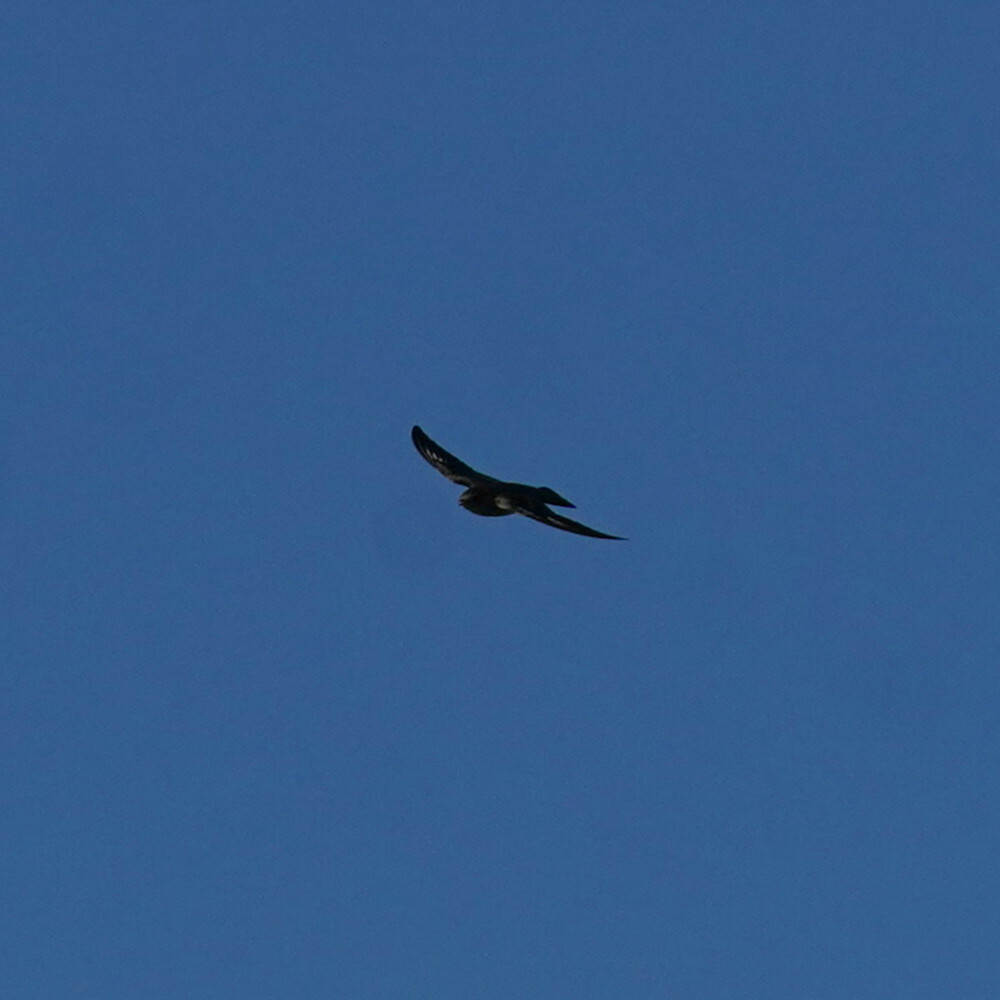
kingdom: Animalia
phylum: Chordata
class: Aves
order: Passeriformes
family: Hirundinidae
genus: Stelgidopteryx
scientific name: Stelgidopteryx serripennis
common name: Northern rough-winged swallow
